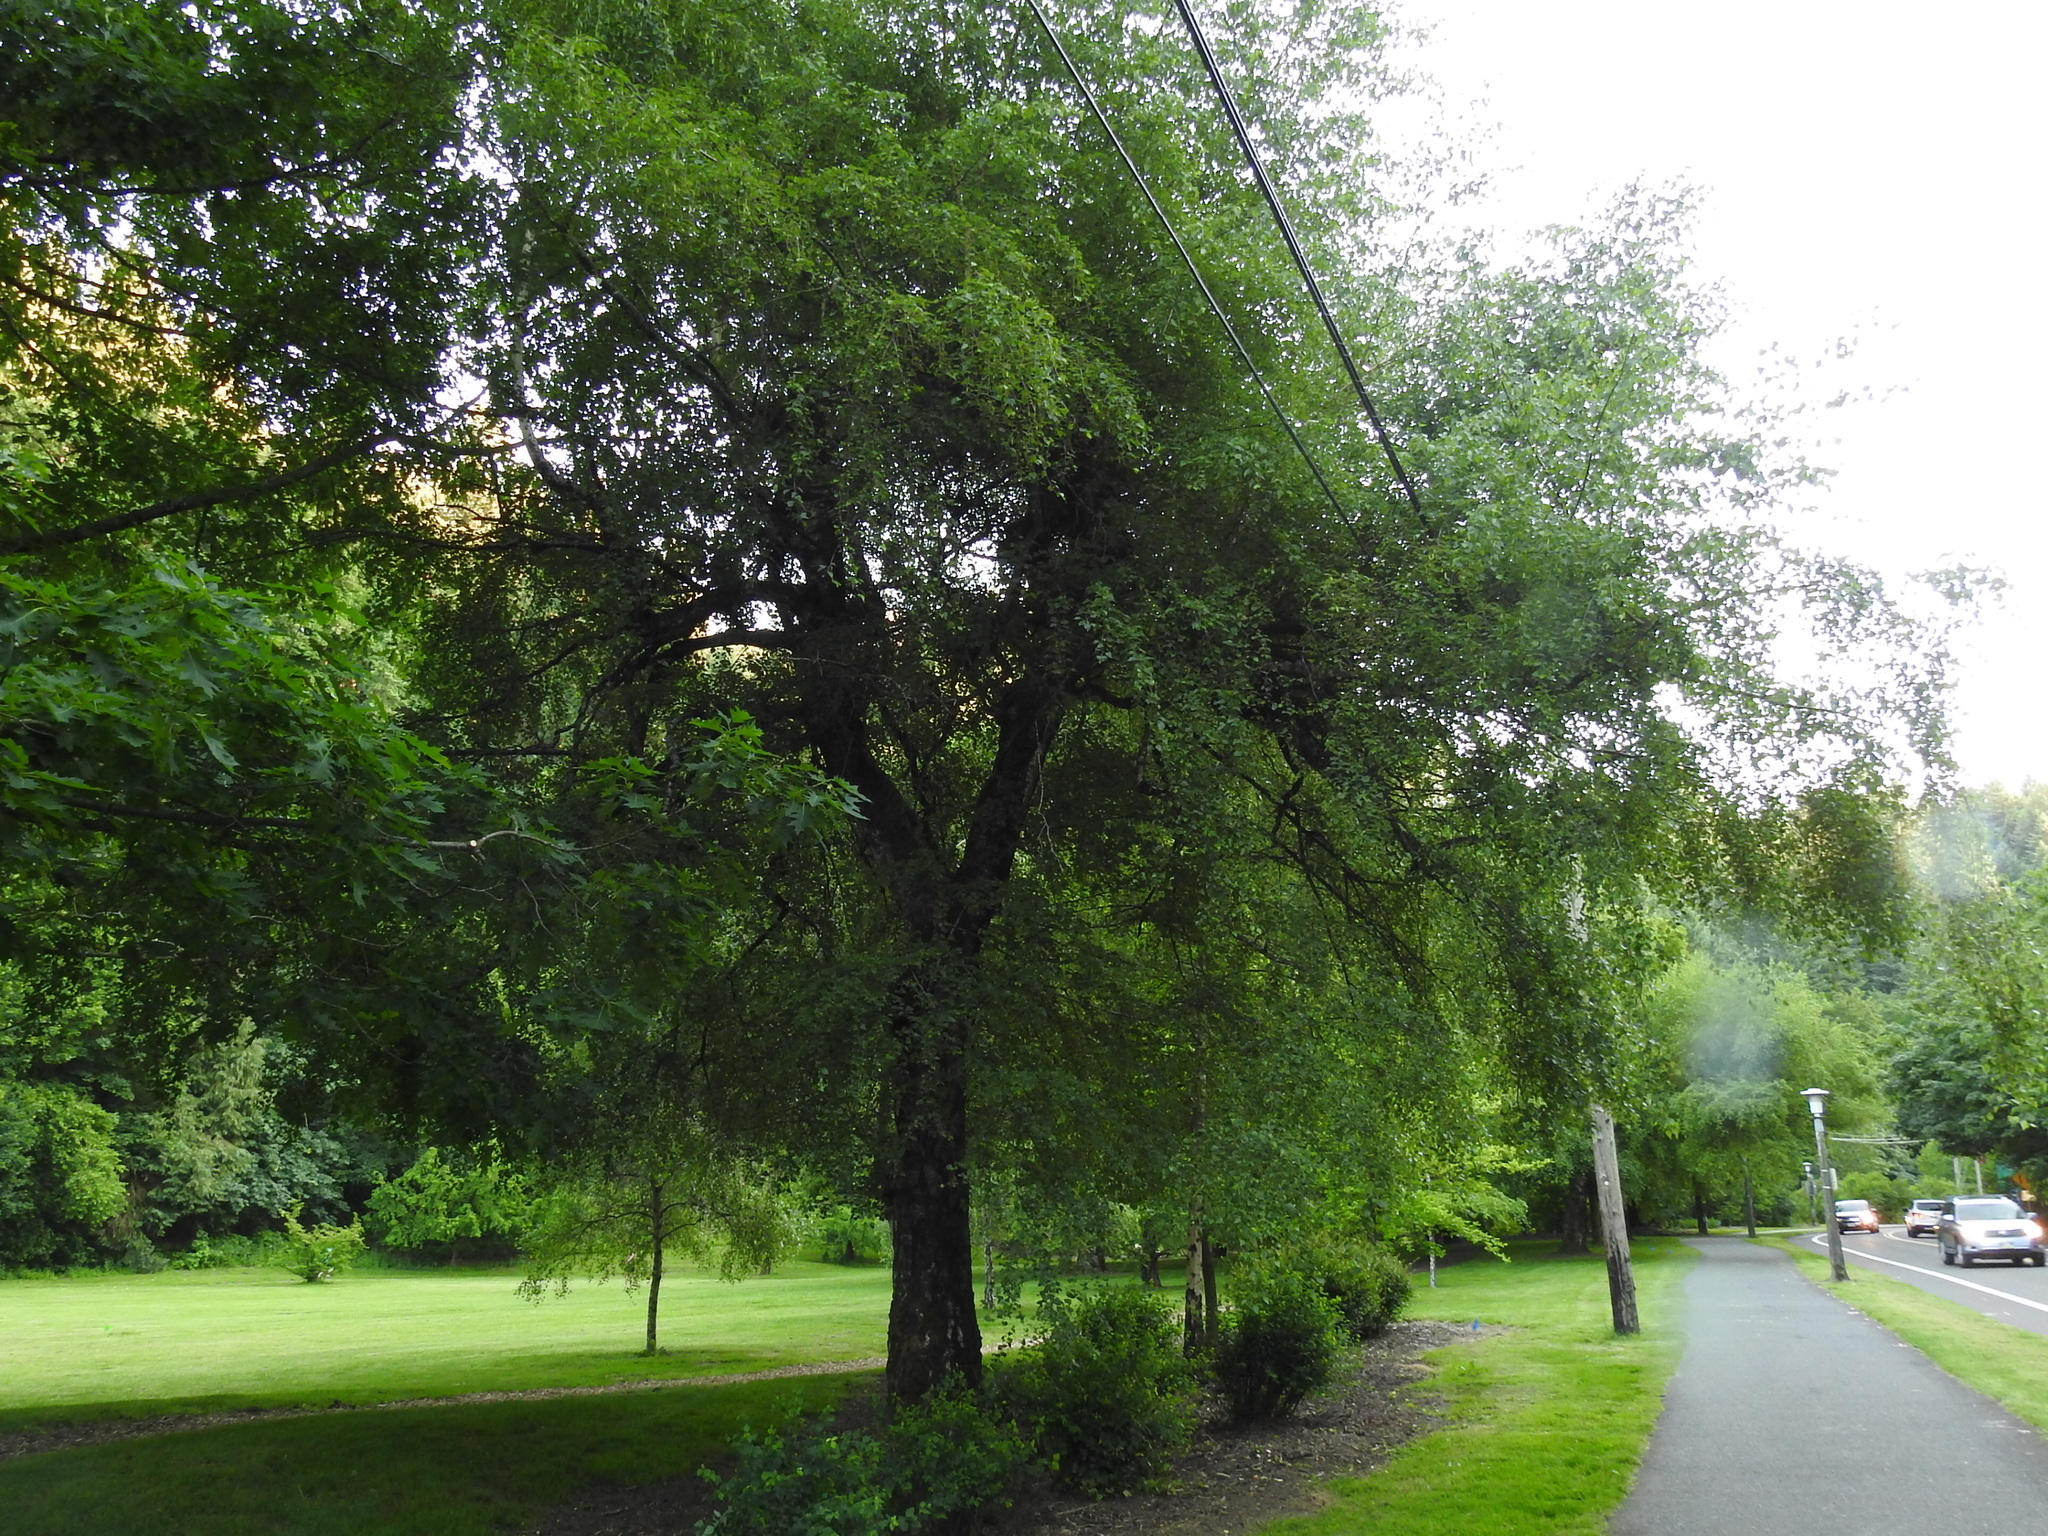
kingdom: Plantae
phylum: Tracheophyta
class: Magnoliopsida
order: Fagales
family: Betulaceae
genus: Betula
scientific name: Betula pendula
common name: Silver birch
